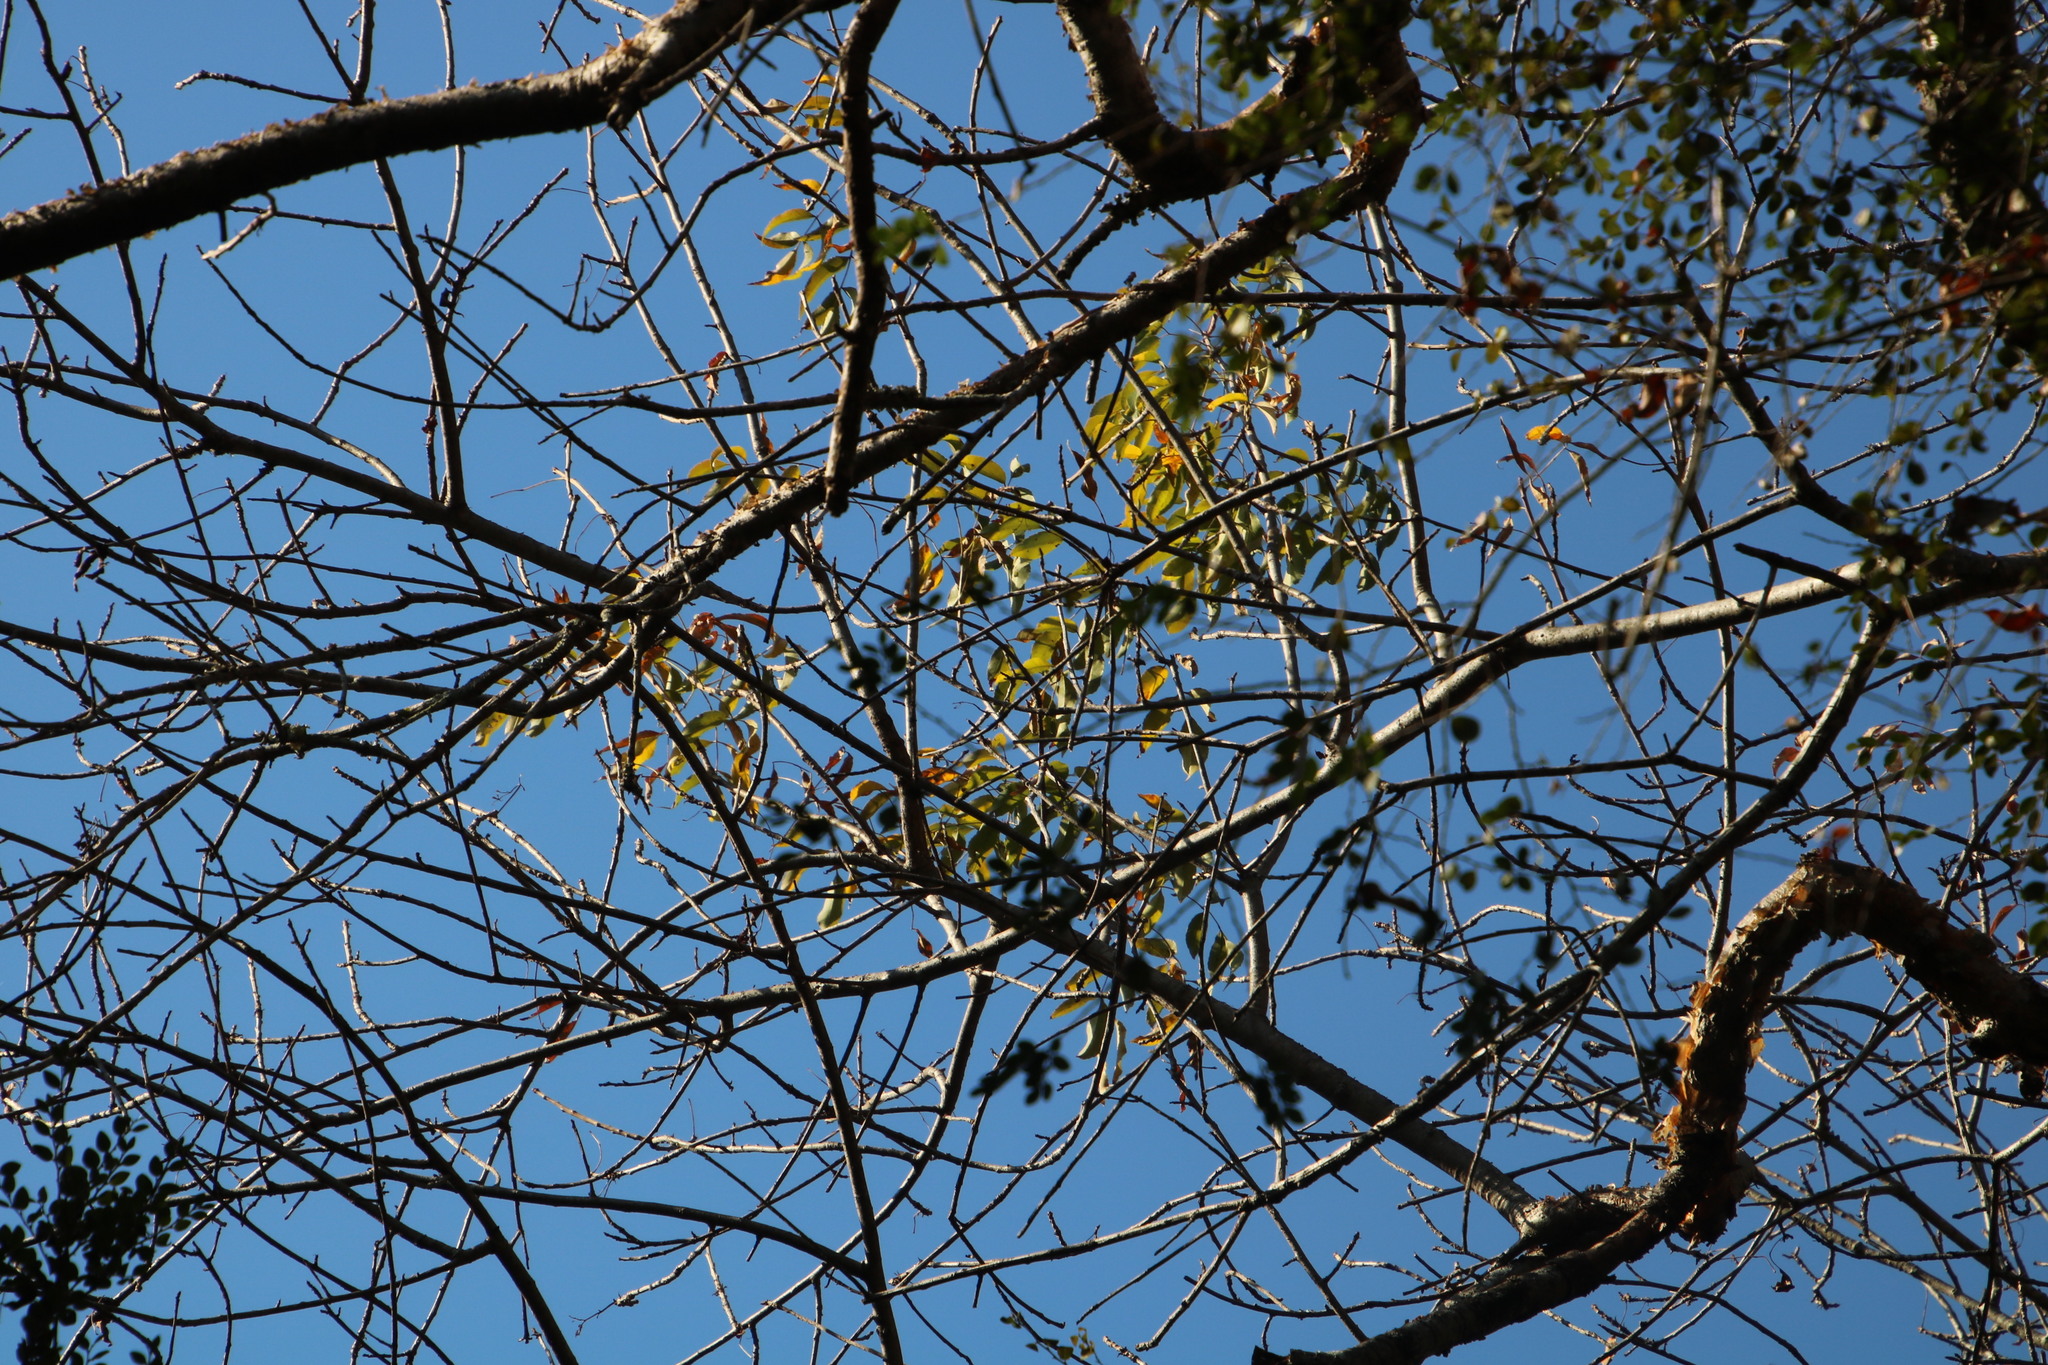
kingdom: Plantae
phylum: Tracheophyta
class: Magnoliopsida
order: Sapindales
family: Burseraceae
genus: Commiphora
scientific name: Commiphora harveyi
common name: Copper-stem corkwood
